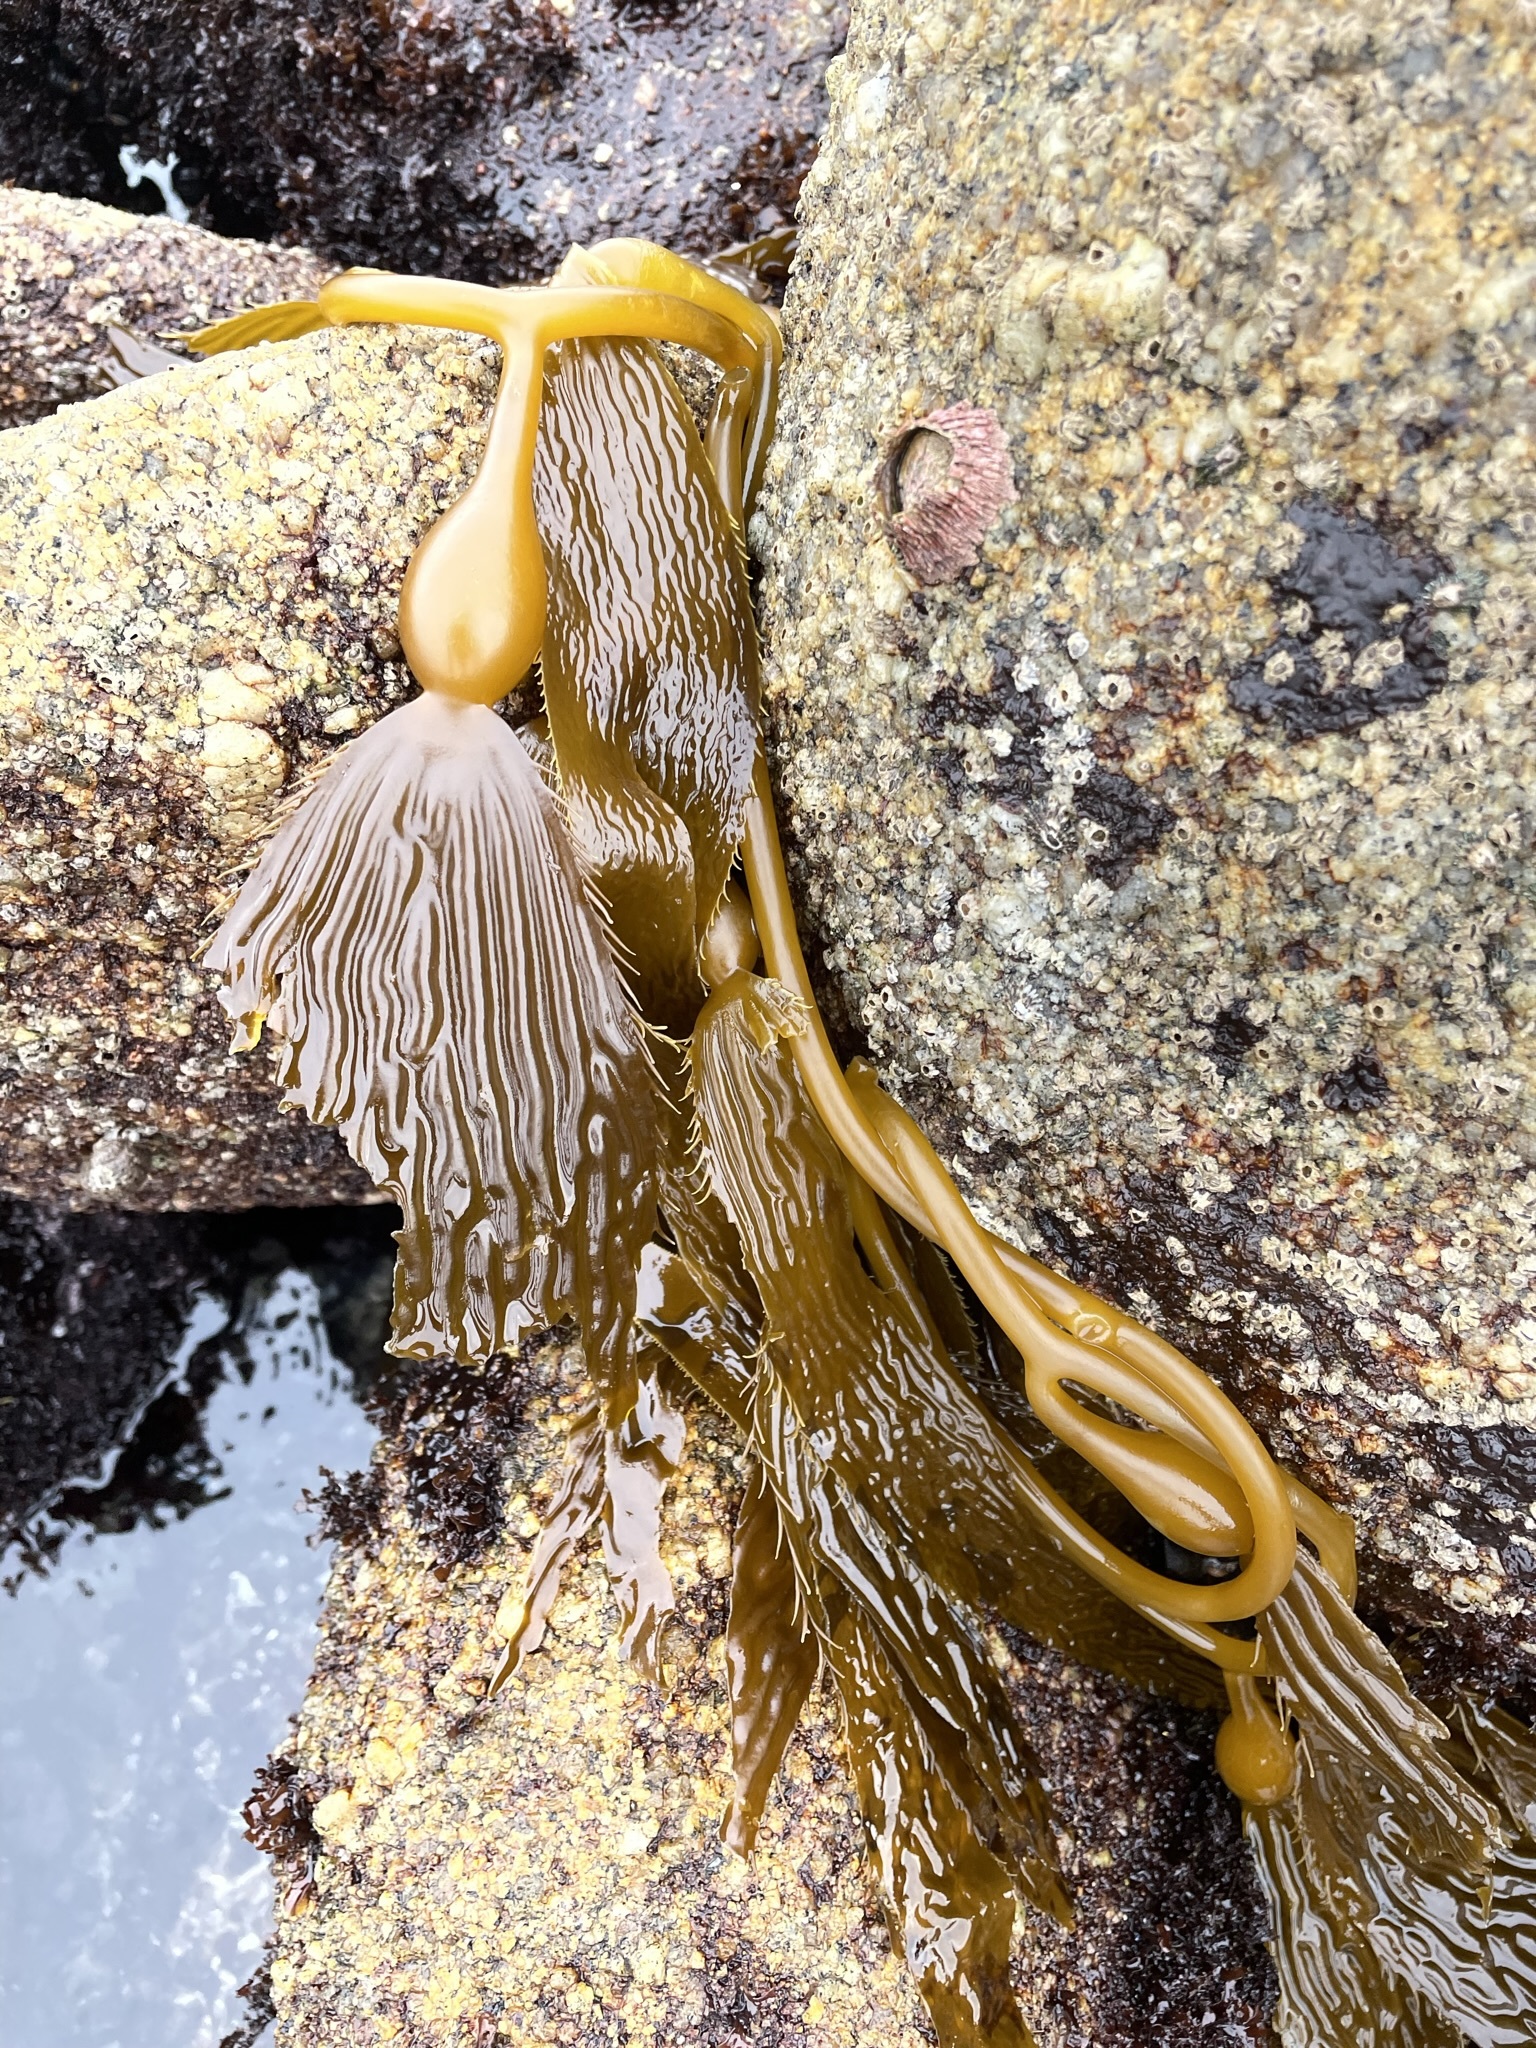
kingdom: Chromista
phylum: Ochrophyta
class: Phaeophyceae
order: Laminariales
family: Laminariaceae
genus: Macrocystis
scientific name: Macrocystis pyrifera
